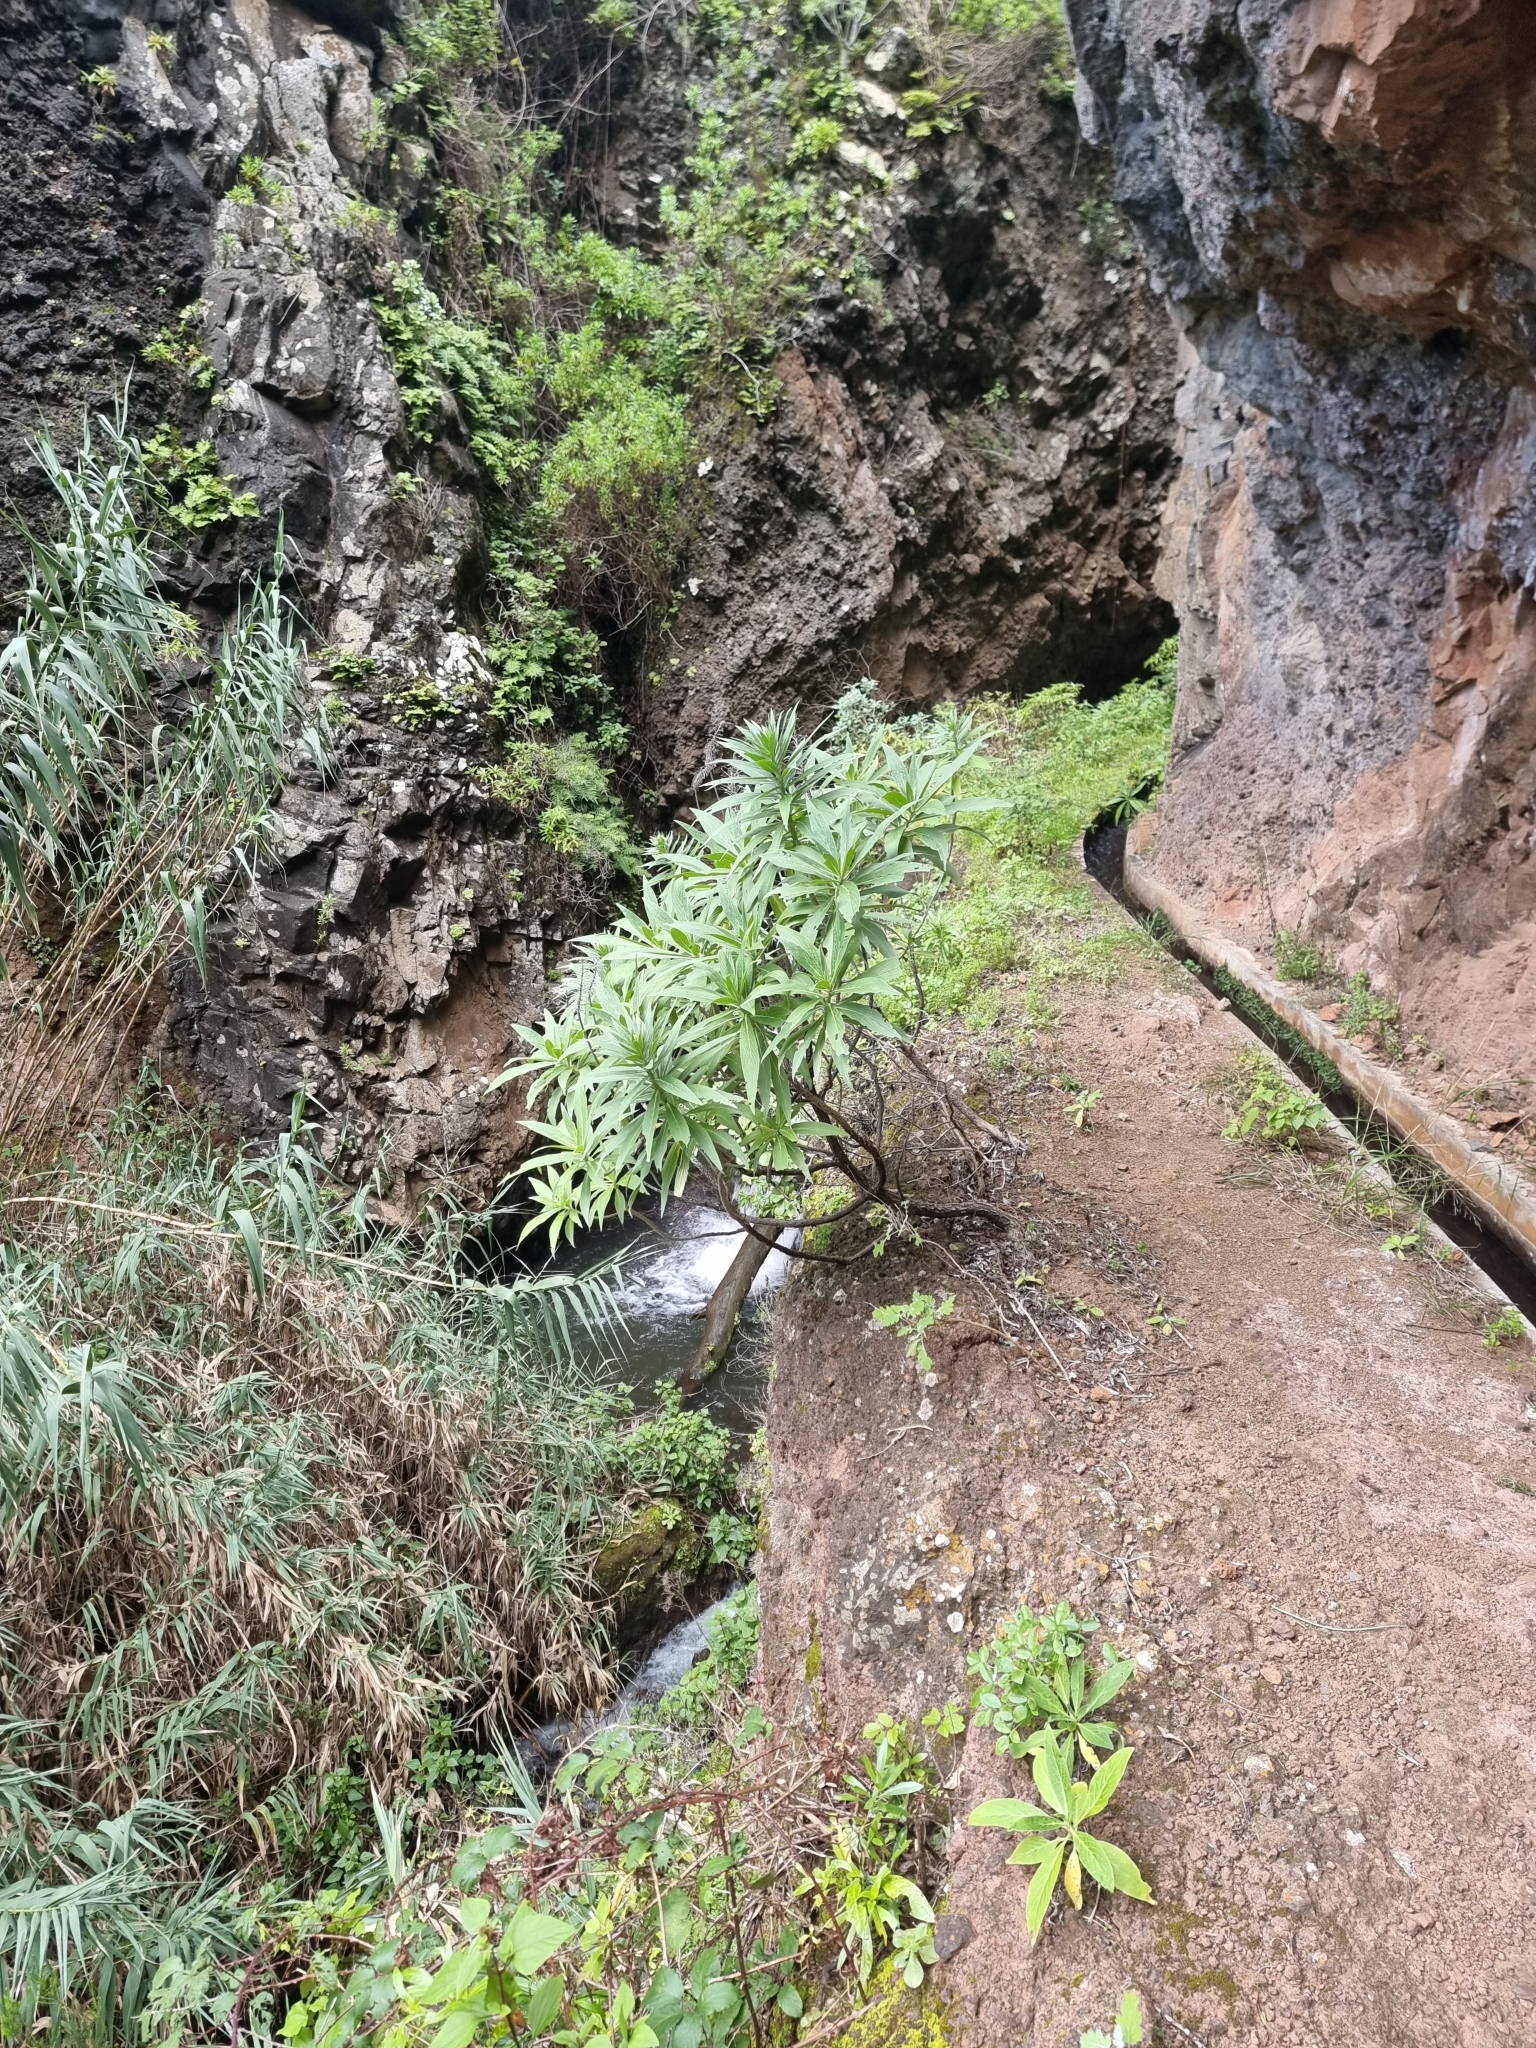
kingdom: Plantae
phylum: Tracheophyta
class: Magnoliopsida
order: Boraginales
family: Boraginaceae
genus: Echium
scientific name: Echium nervosum
